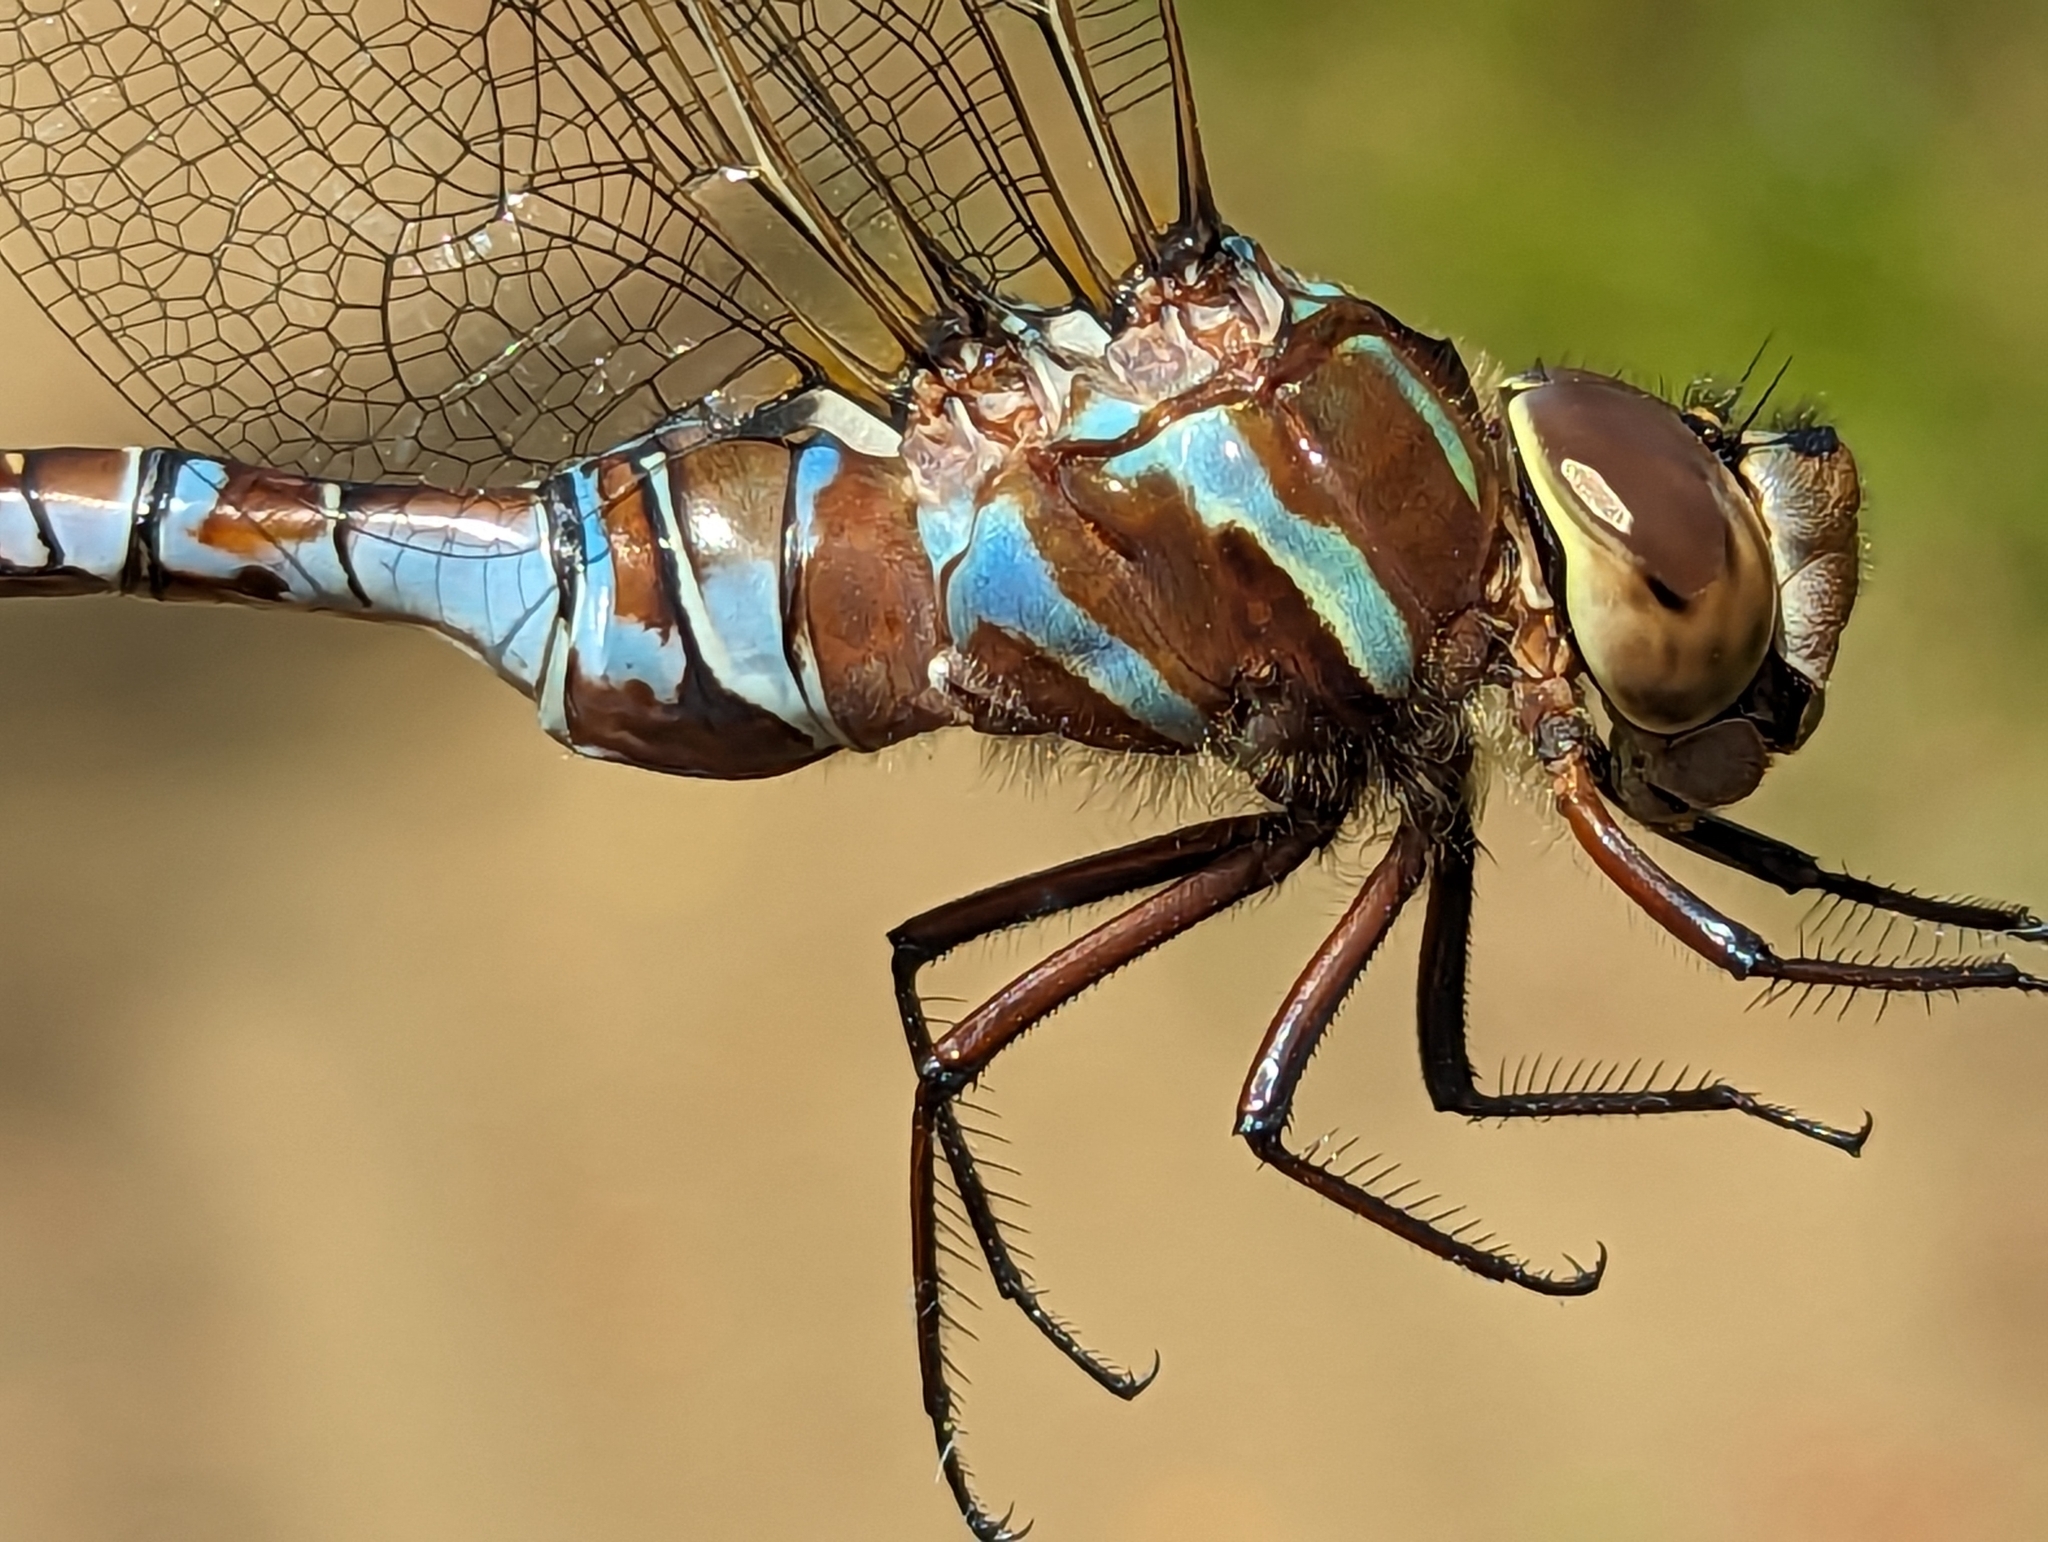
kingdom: Animalia
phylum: Arthropoda
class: Insecta
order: Odonata
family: Aeshnidae
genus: Aeshna
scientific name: Aeshna constricta
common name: Lance-tipped darner
